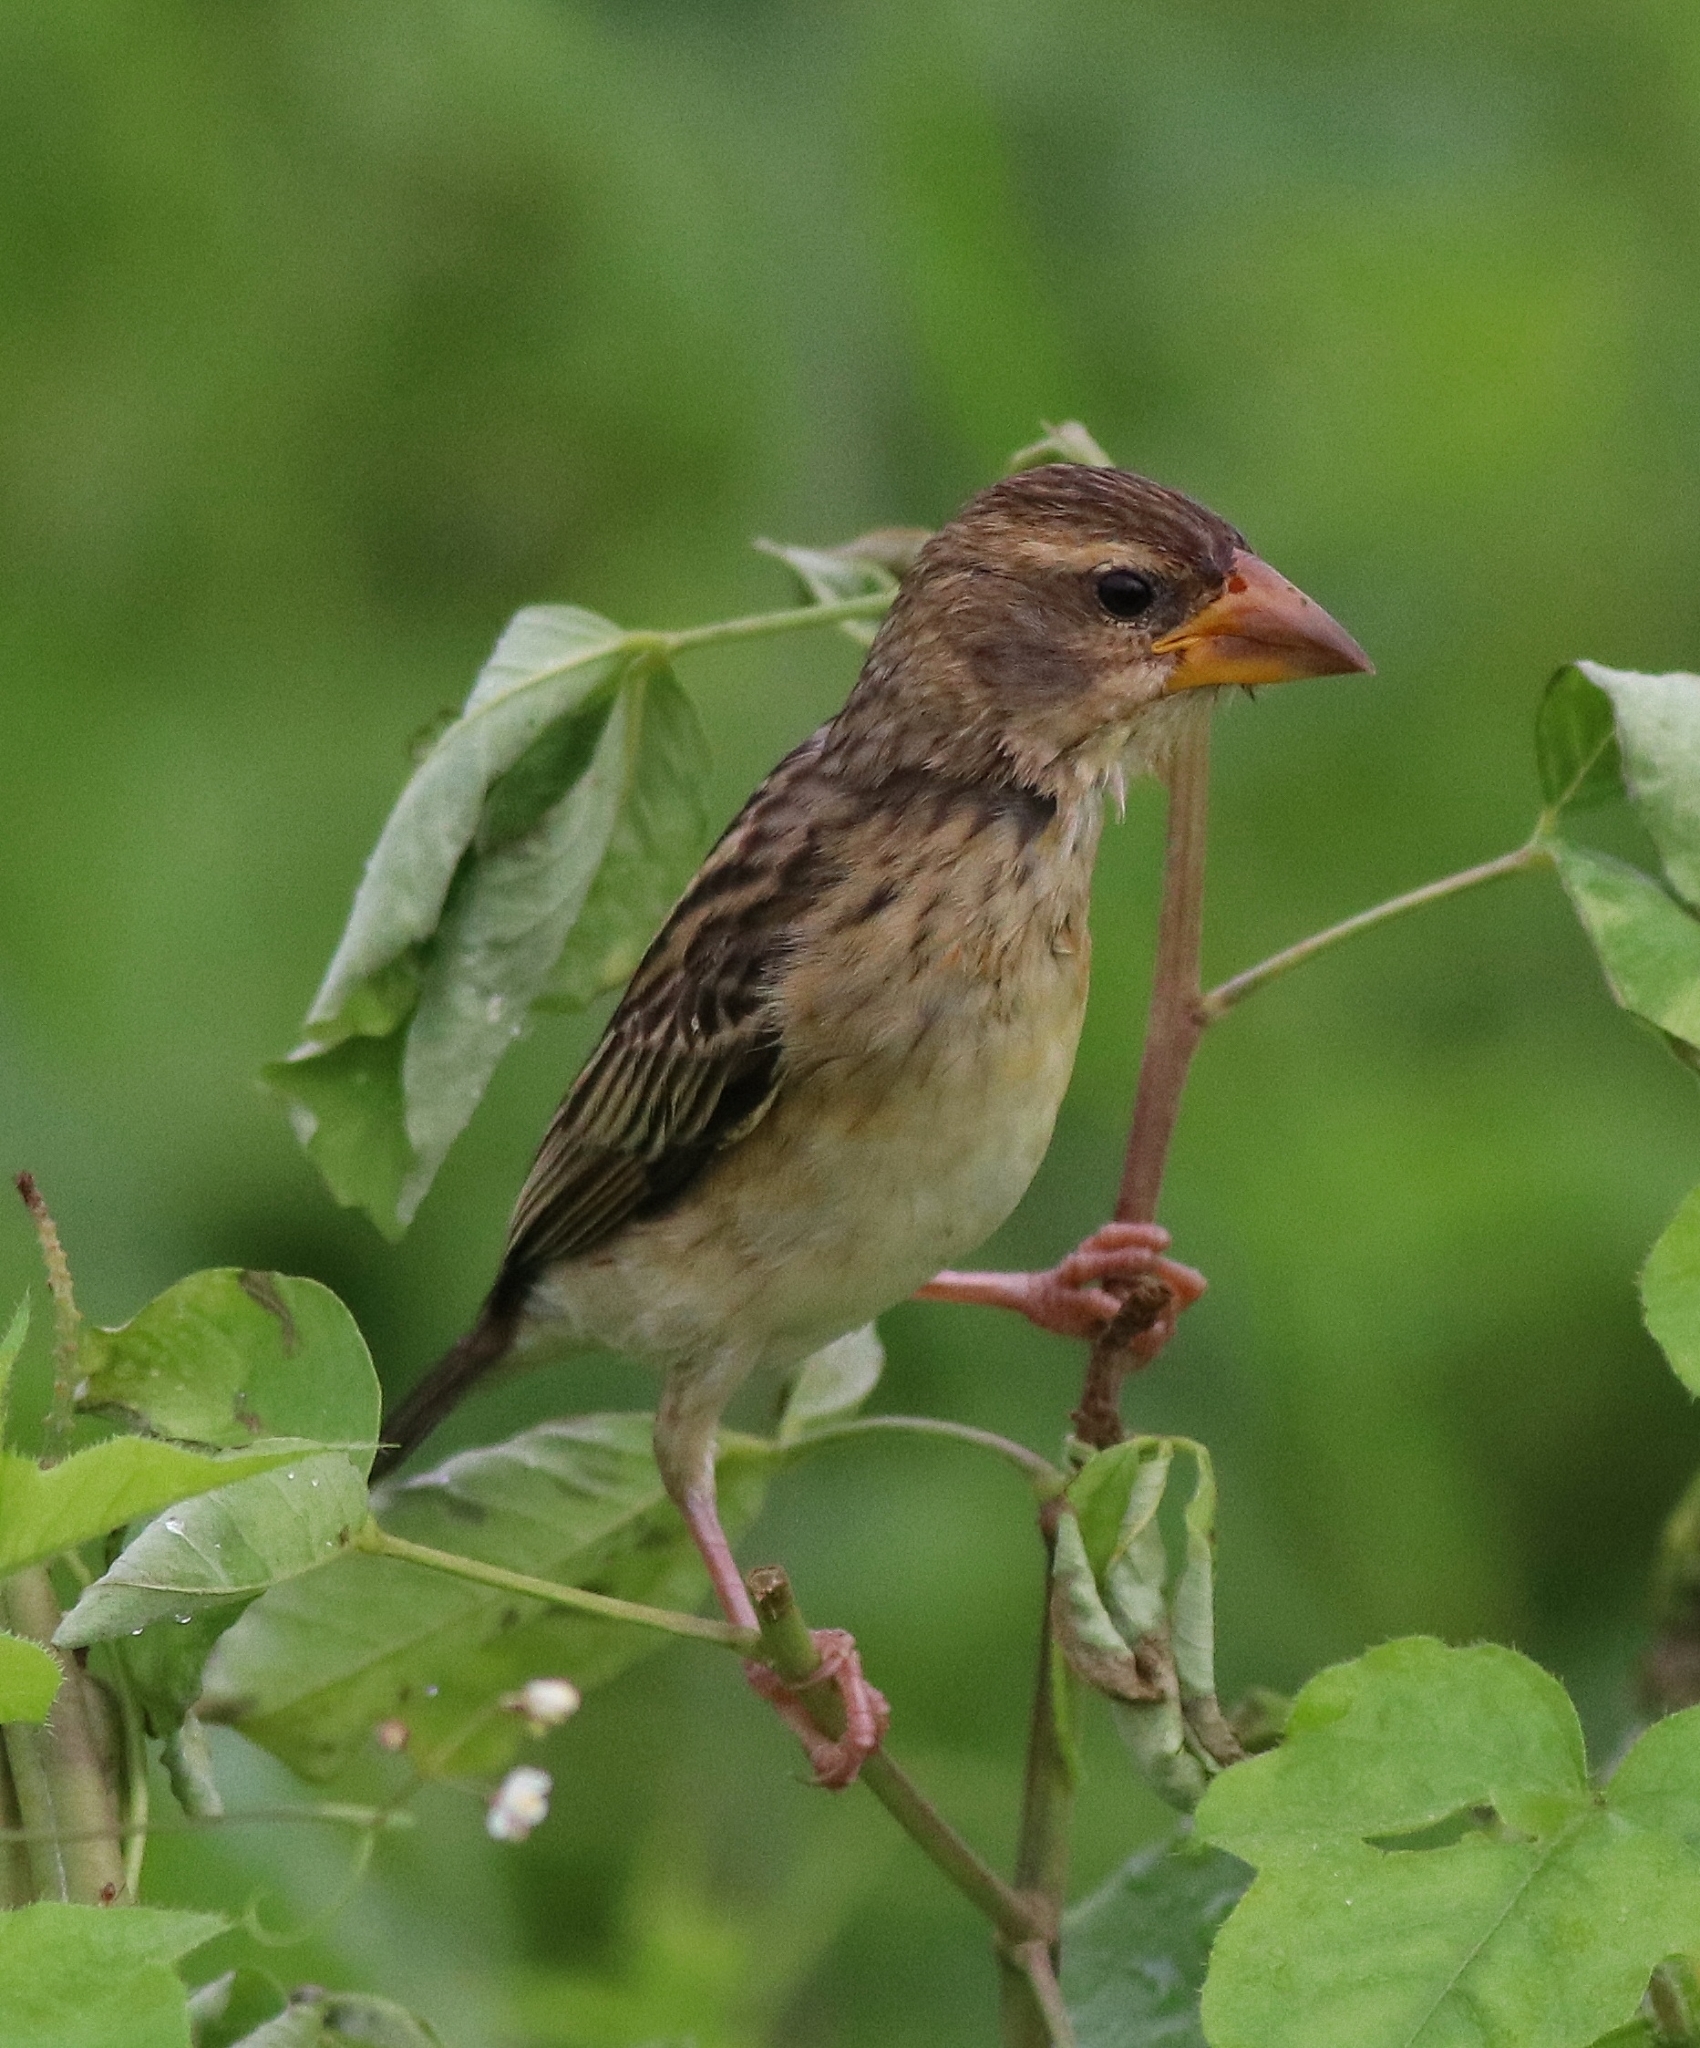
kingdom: Animalia
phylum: Chordata
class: Aves
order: Passeriformes
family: Ploceidae
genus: Ploceus
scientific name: Ploceus philippinus
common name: Baya weaver
